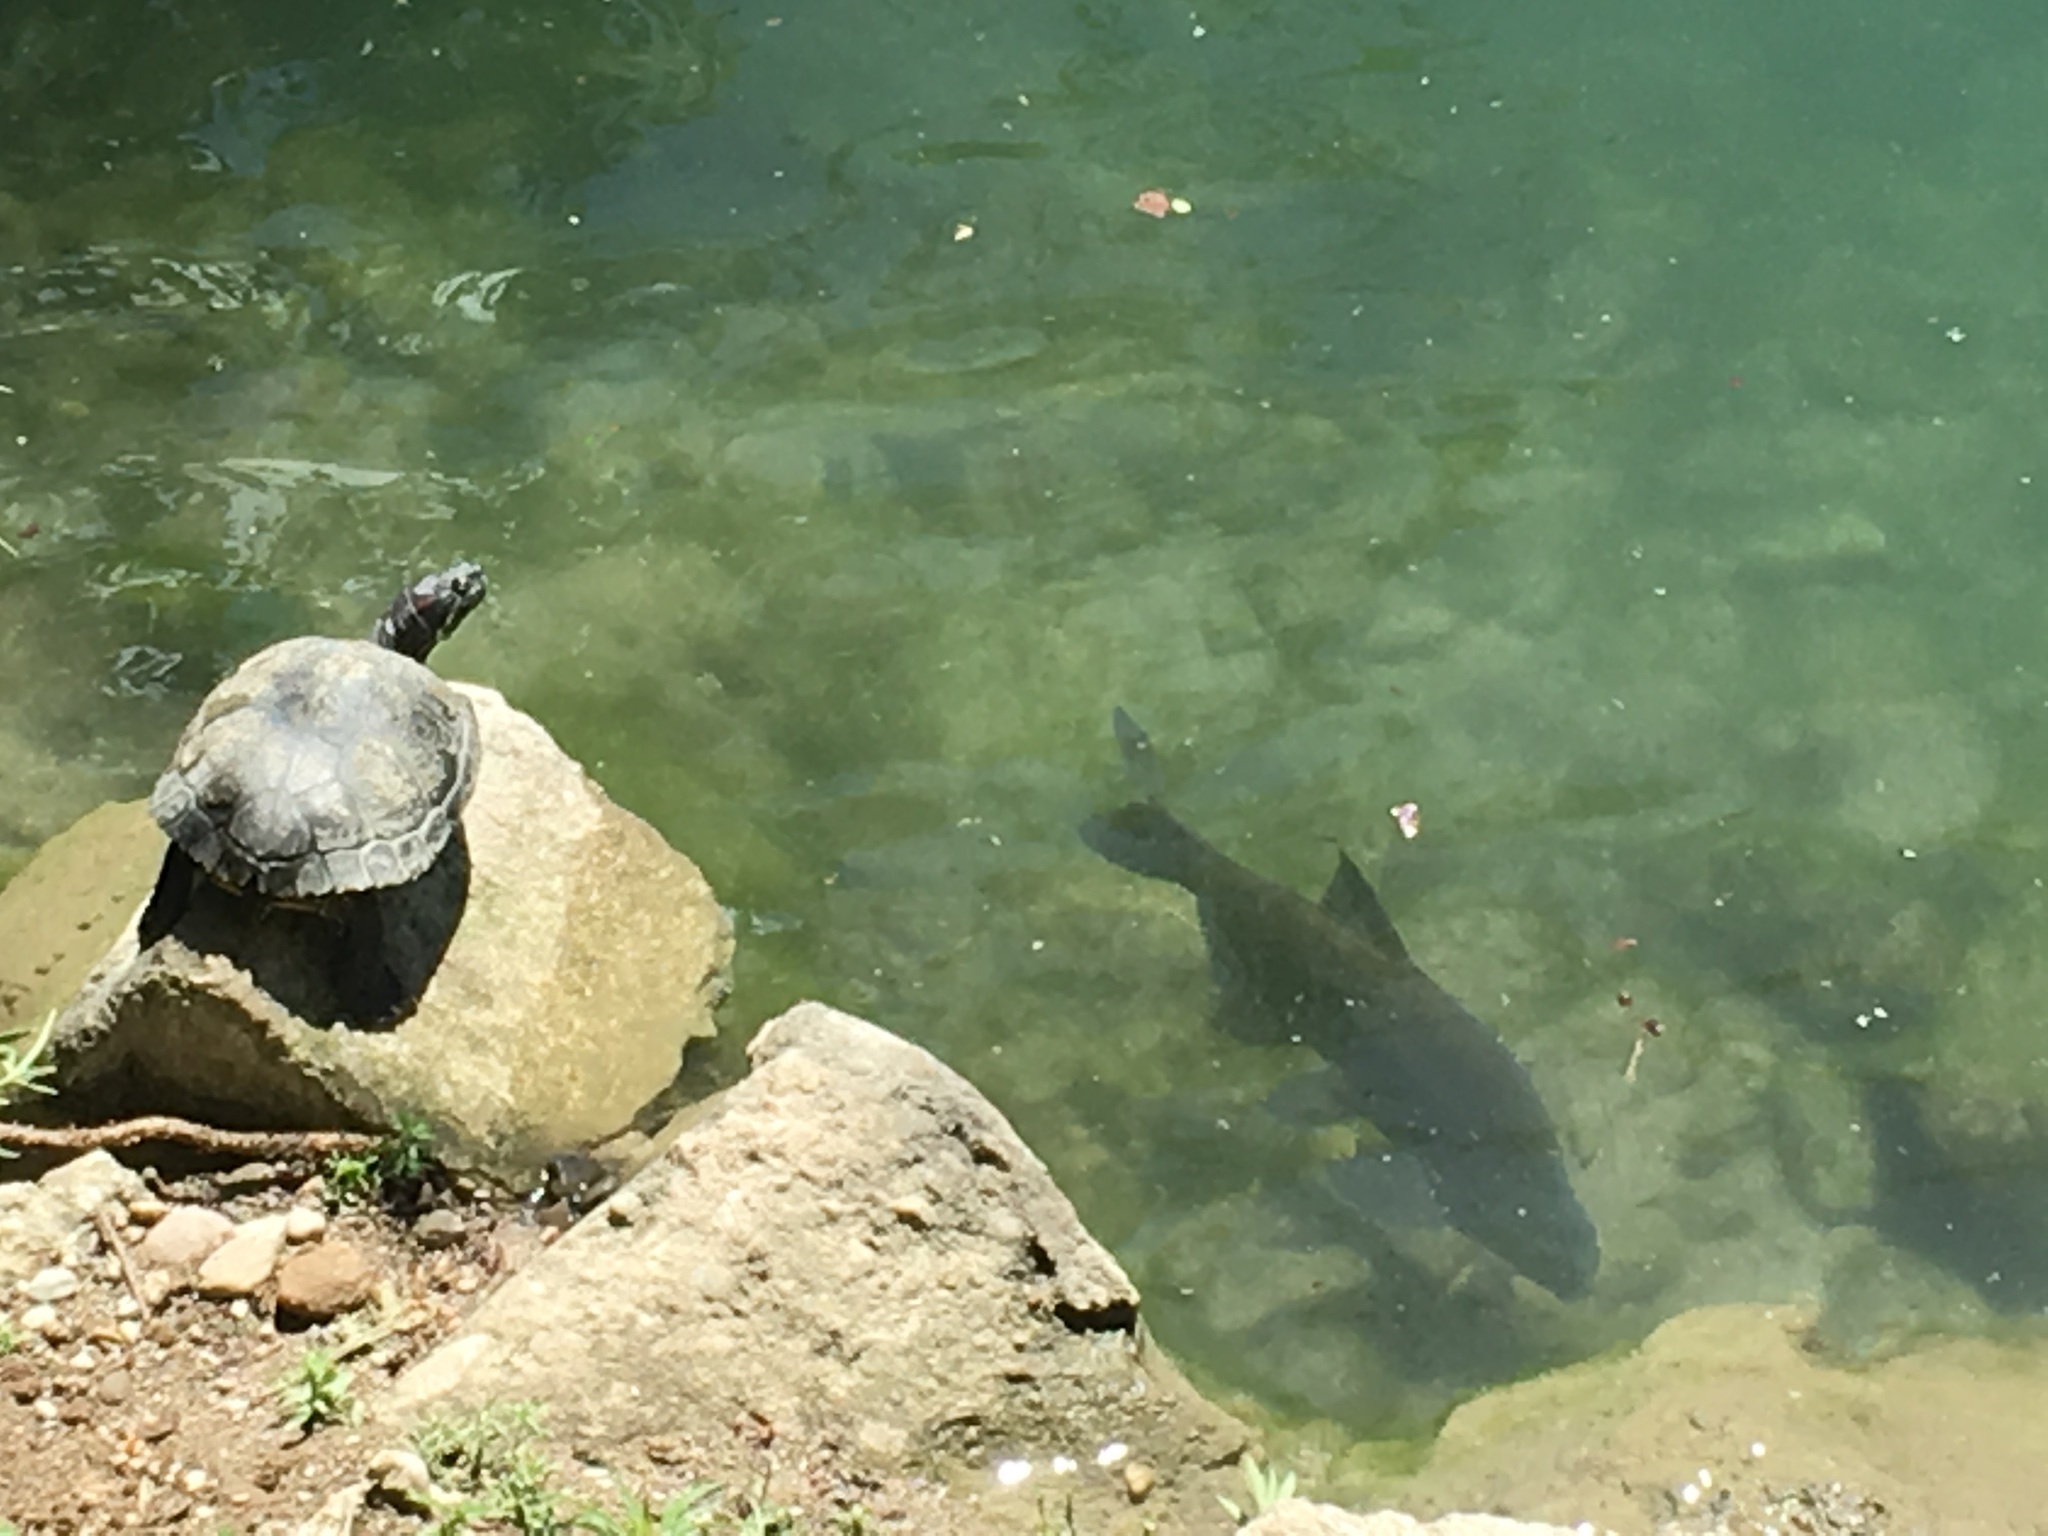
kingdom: Animalia
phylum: Chordata
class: Testudines
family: Emydidae
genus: Trachemys
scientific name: Trachemys scripta
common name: Slider
